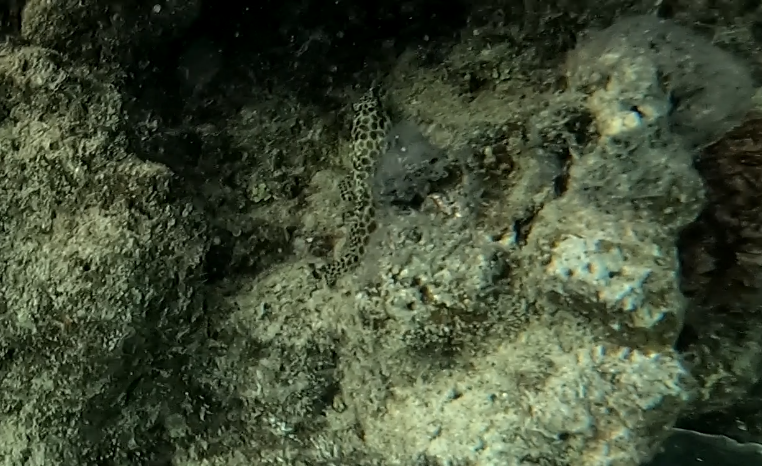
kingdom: Animalia
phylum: Chordata
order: Perciformes
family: Serranidae
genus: Epinephelus
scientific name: Epinephelus merra
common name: Honeycomb grouper
